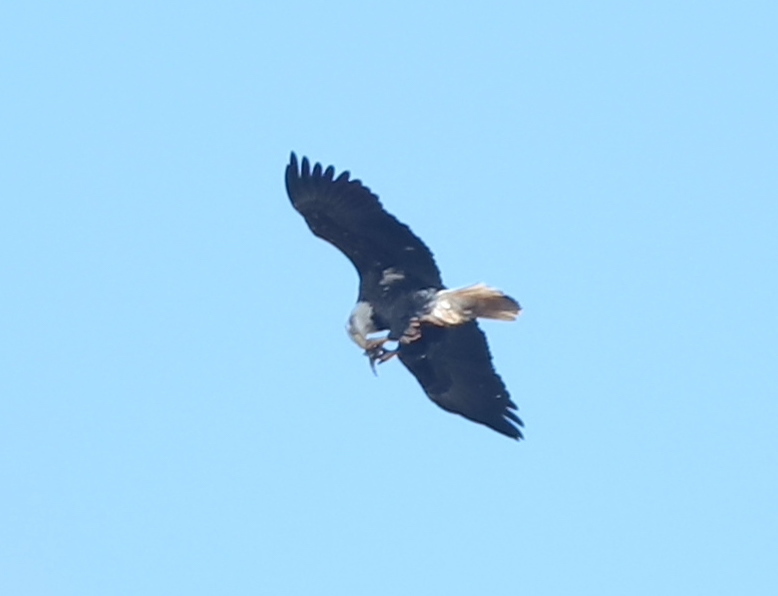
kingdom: Animalia
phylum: Chordata
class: Aves
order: Accipitriformes
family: Accipitridae
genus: Haliaeetus
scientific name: Haliaeetus leucocephalus
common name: Bald eagle
